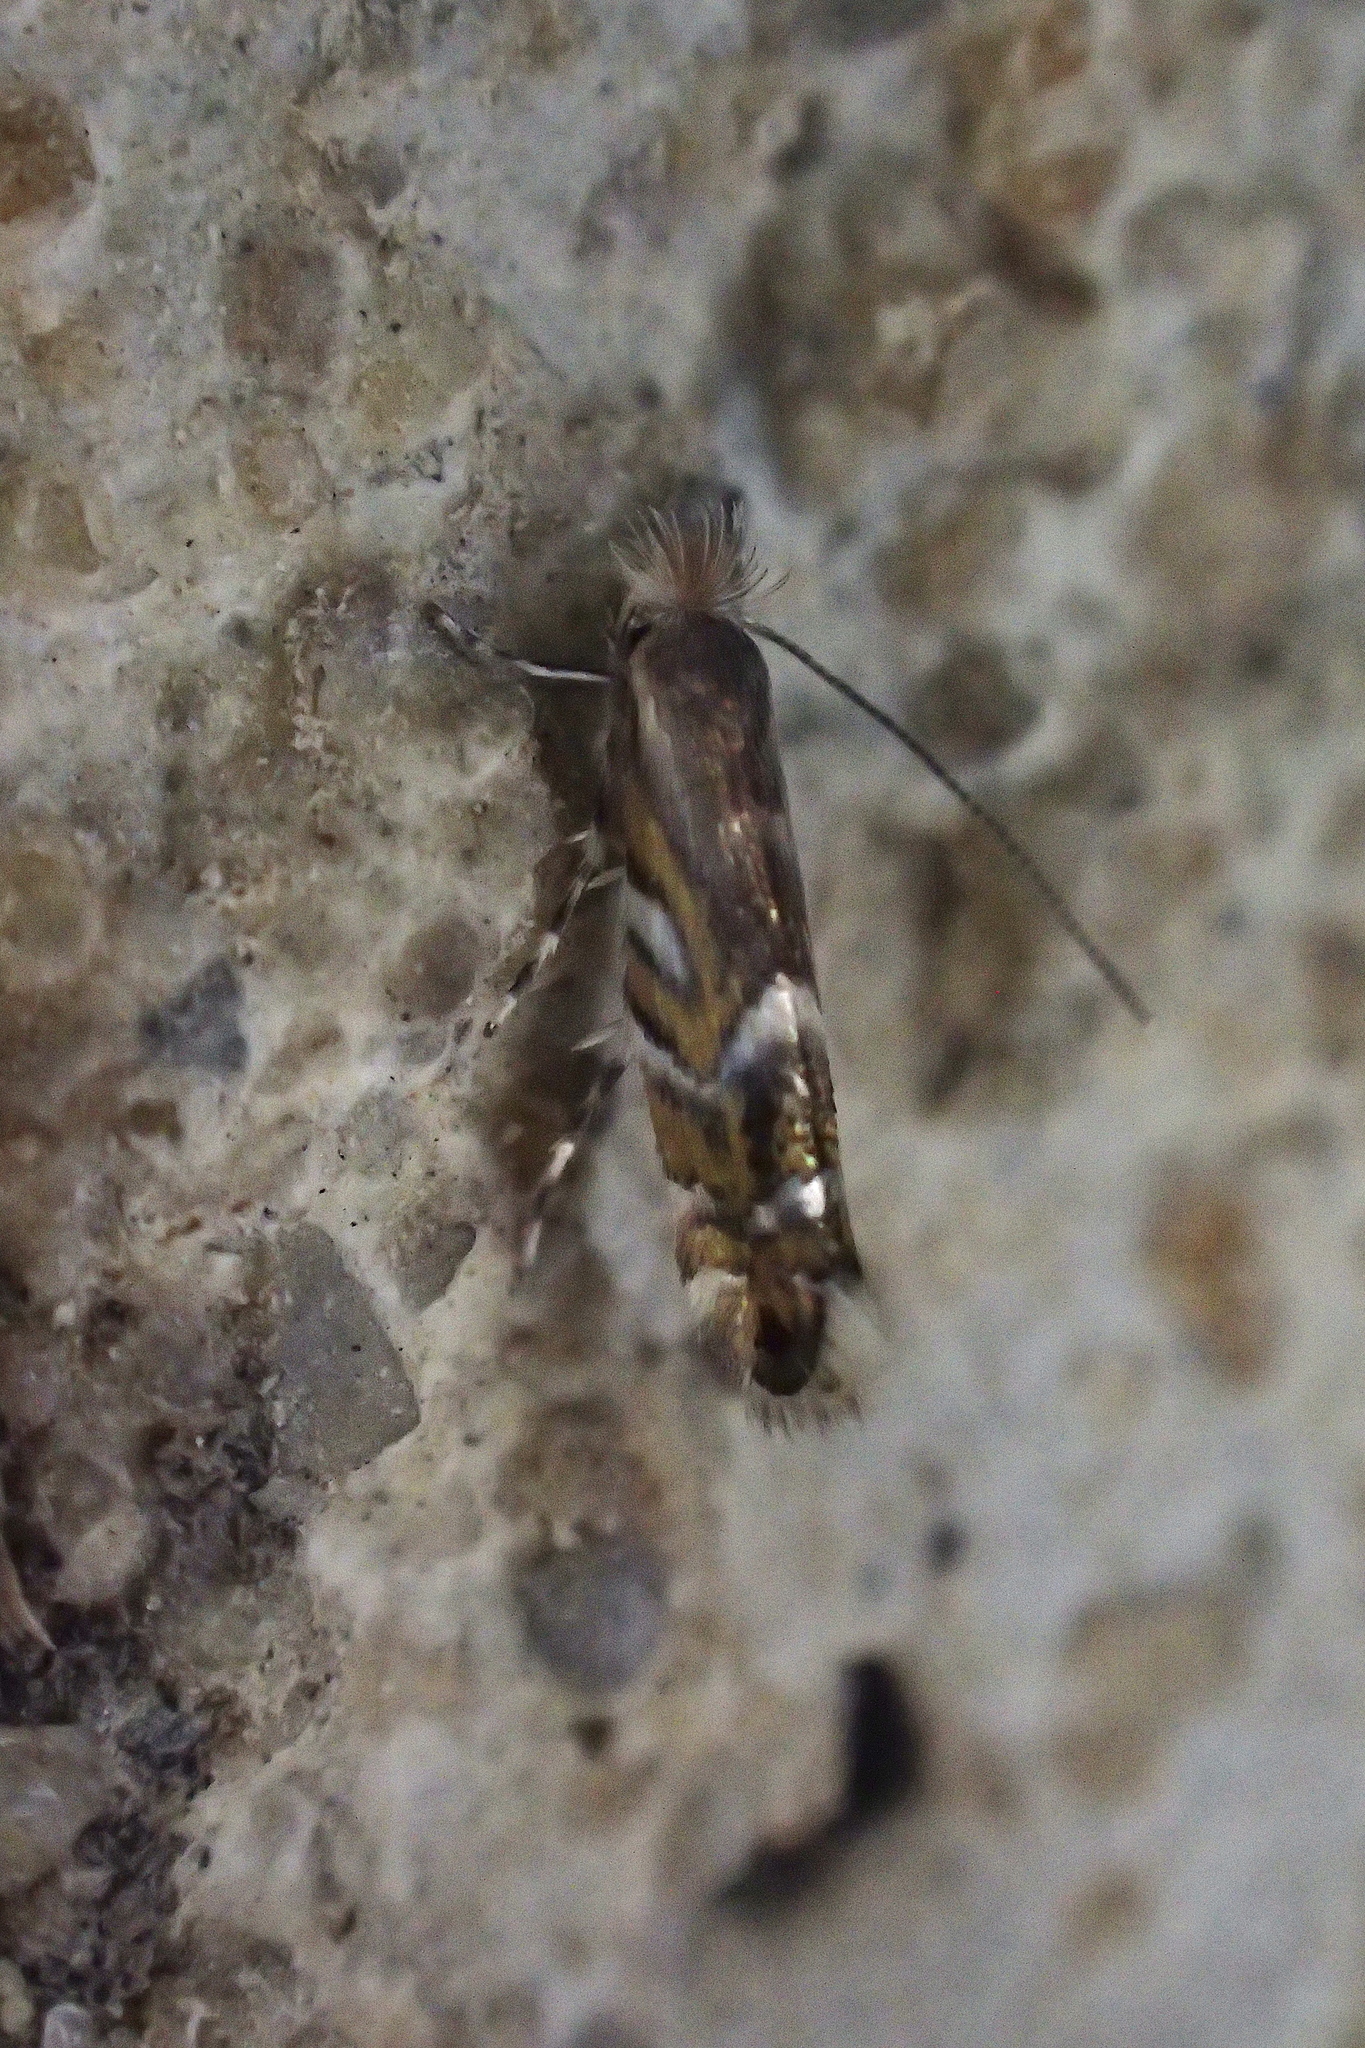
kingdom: Animalia
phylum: Arthropoda
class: Insecta
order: Lepidoptera
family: Gracillariidae
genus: Macrosaccus
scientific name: Macrosaccus robiniella
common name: Leaf blotch miner moth
